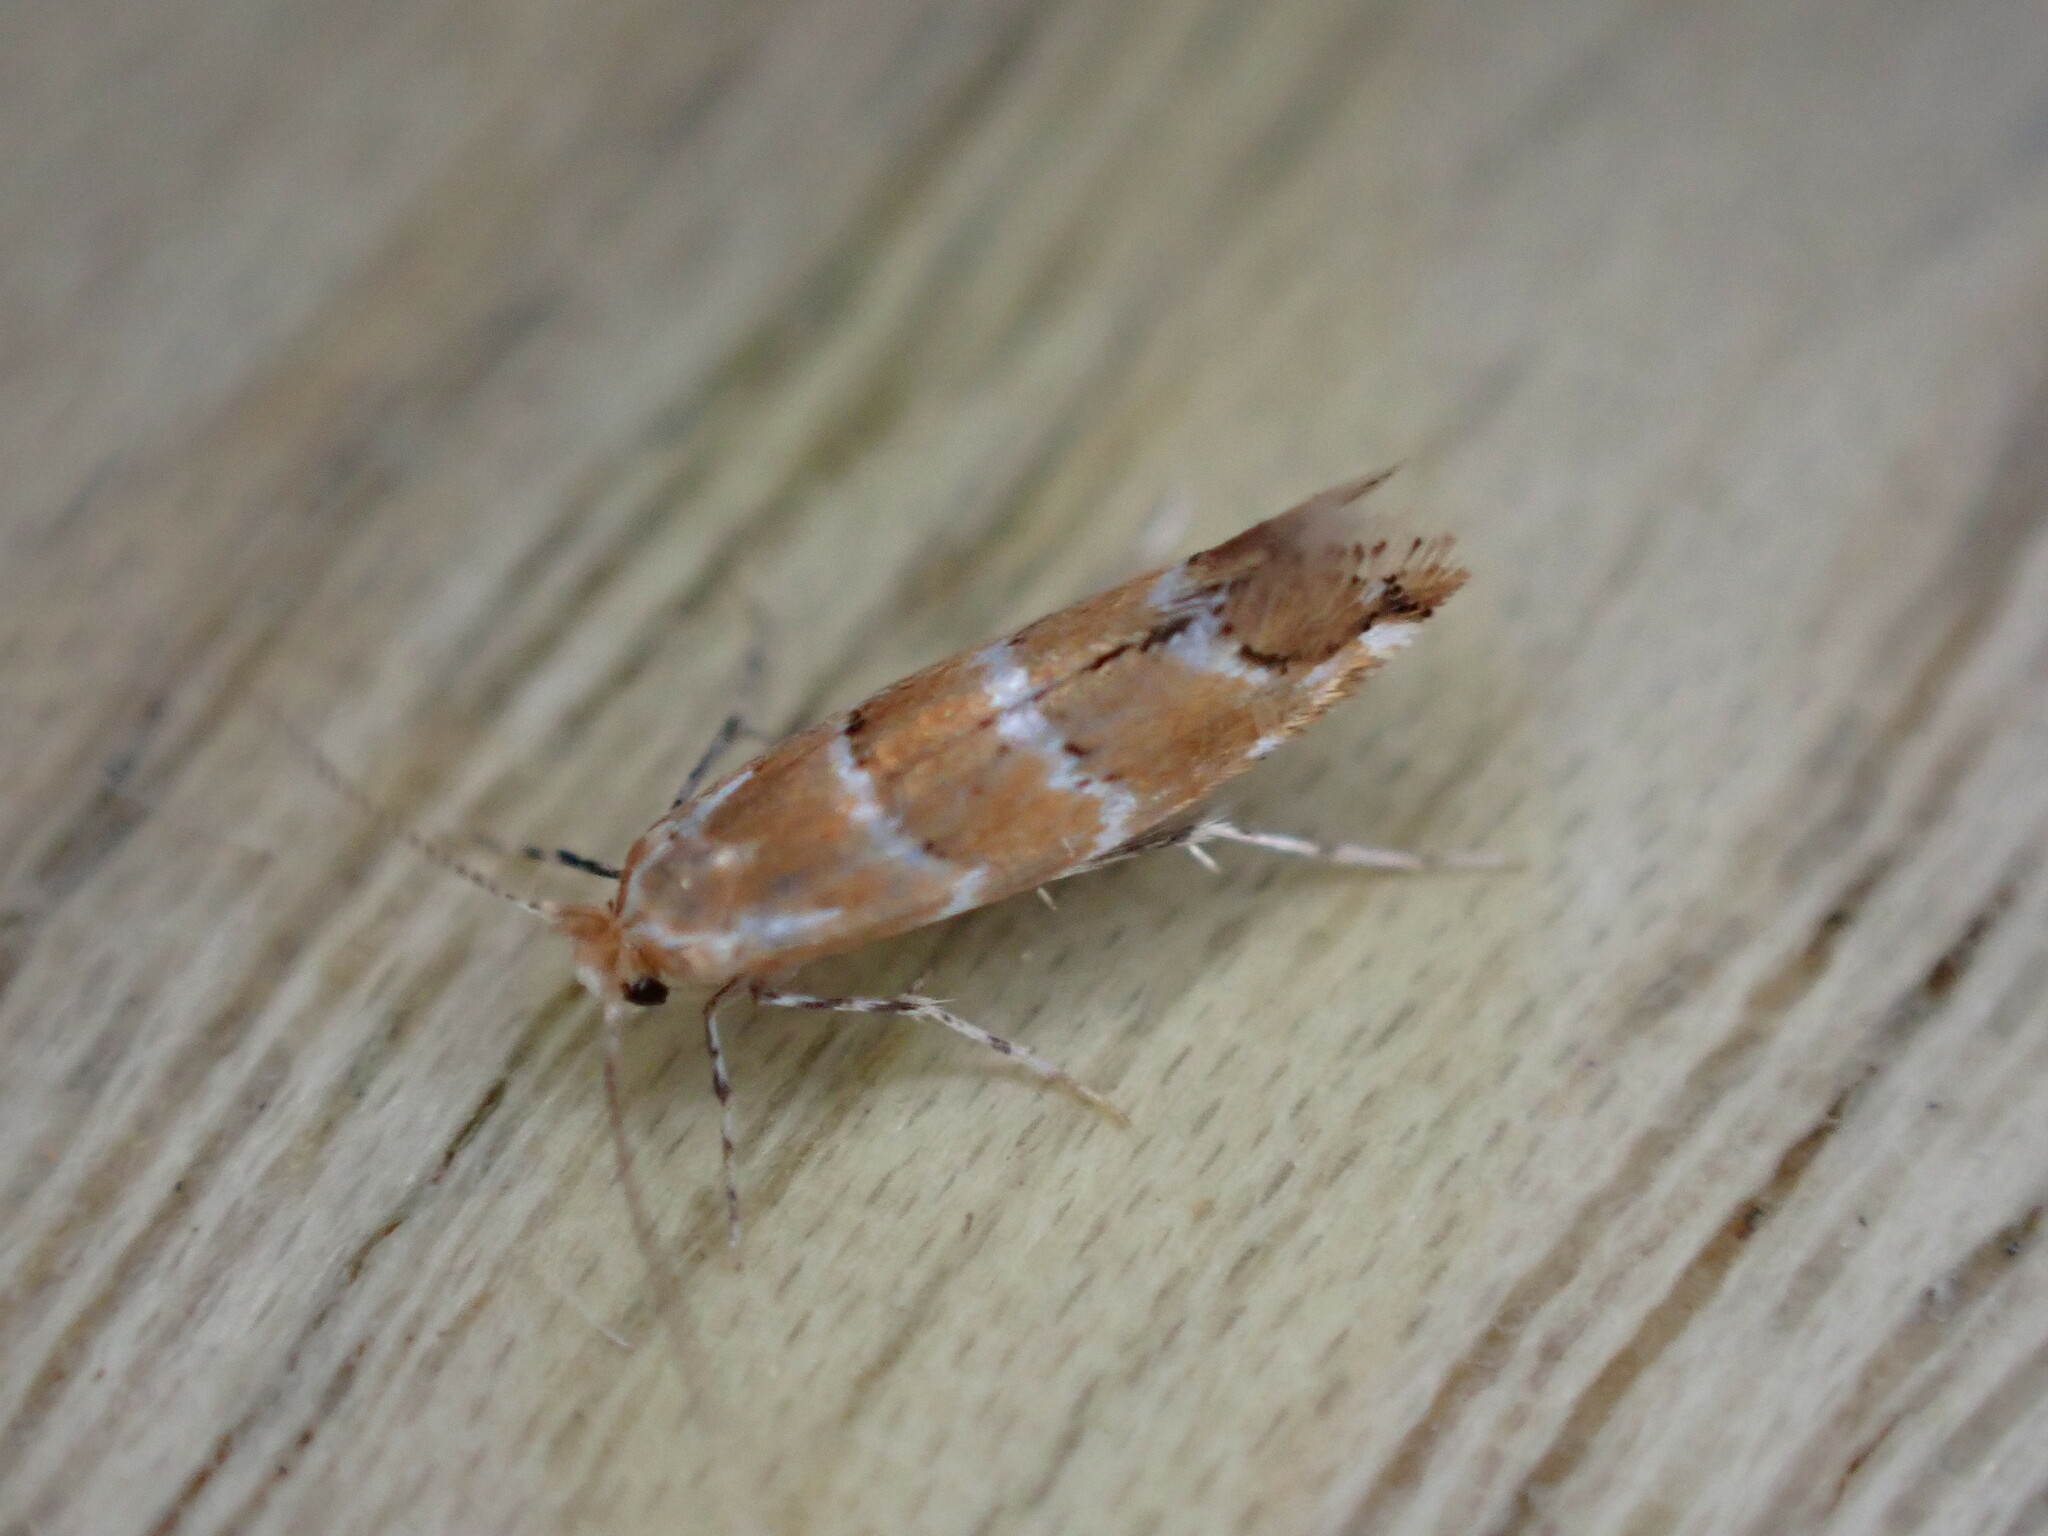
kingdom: Animalia
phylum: Arthropoda
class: Insecta
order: Lepidoptera
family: Gracillariidae
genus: Cameraria
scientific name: Cameraria ohridella
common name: Horse-chestnut leaf-miner
